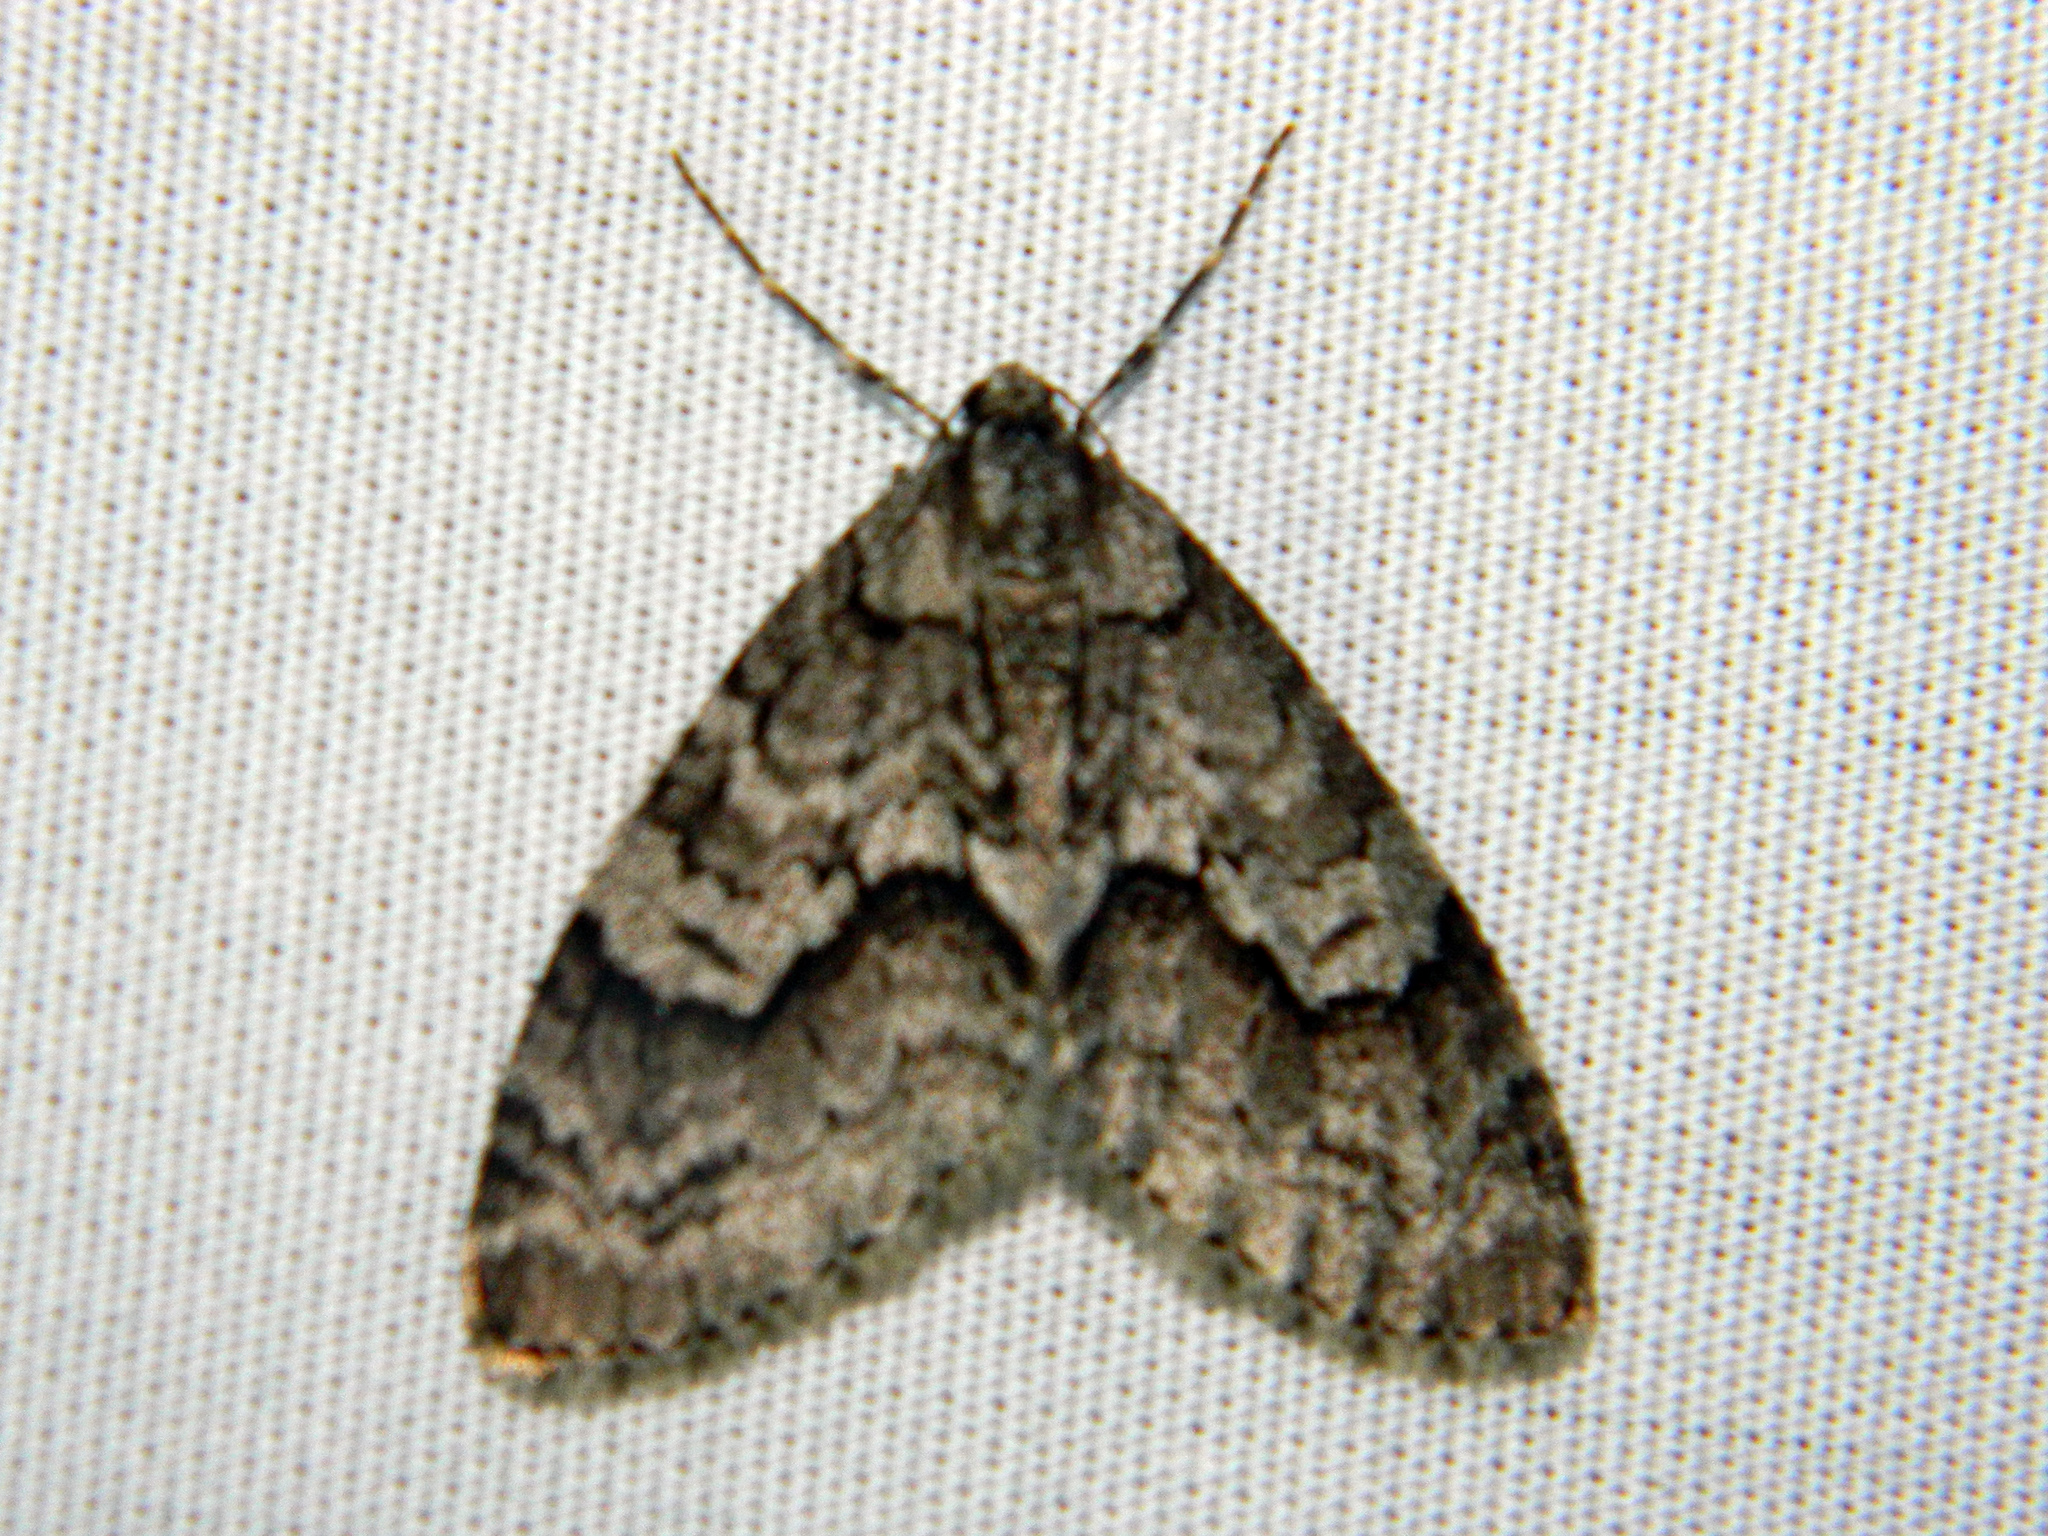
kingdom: Animalia
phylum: Arthropoda
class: Insecta
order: Lepidoptera
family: Geometridae
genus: Cladara
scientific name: Cladara limitaria
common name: Mottled gray carpet
